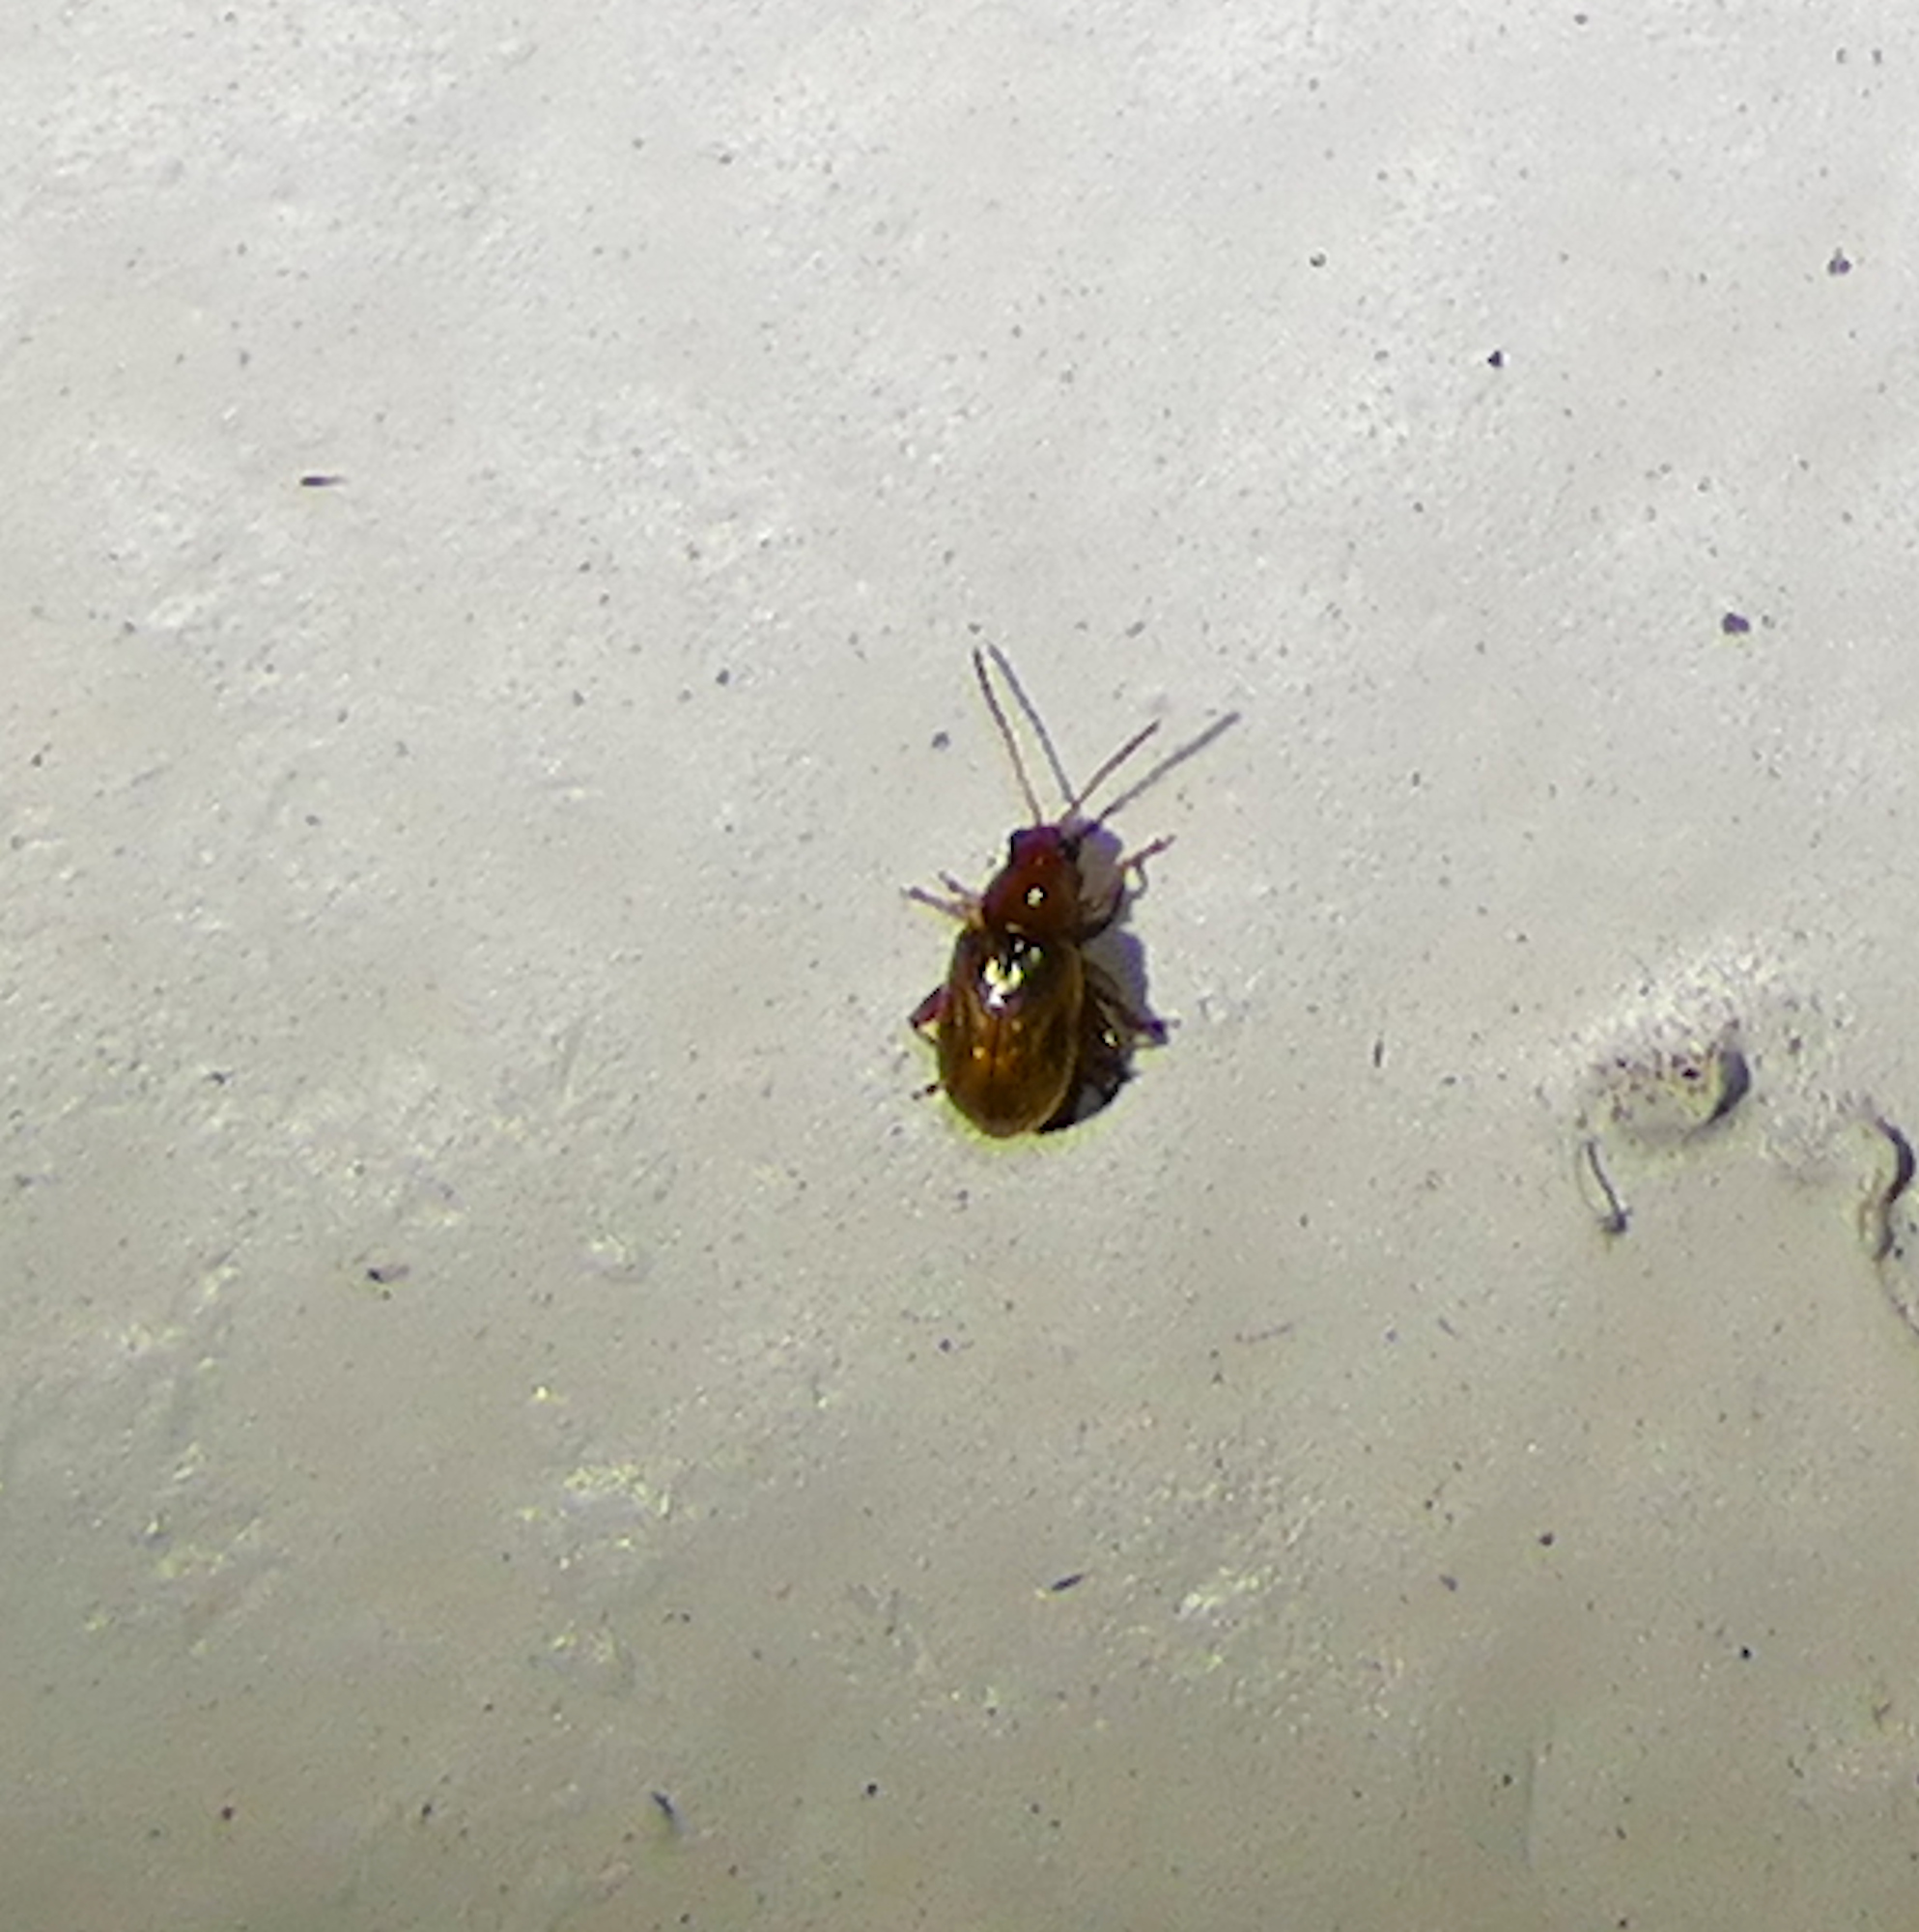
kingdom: Animalia
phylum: Arthropoda
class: Insecta
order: Coleoptera
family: Chrysomelidae
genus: Alticini
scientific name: Alticini
